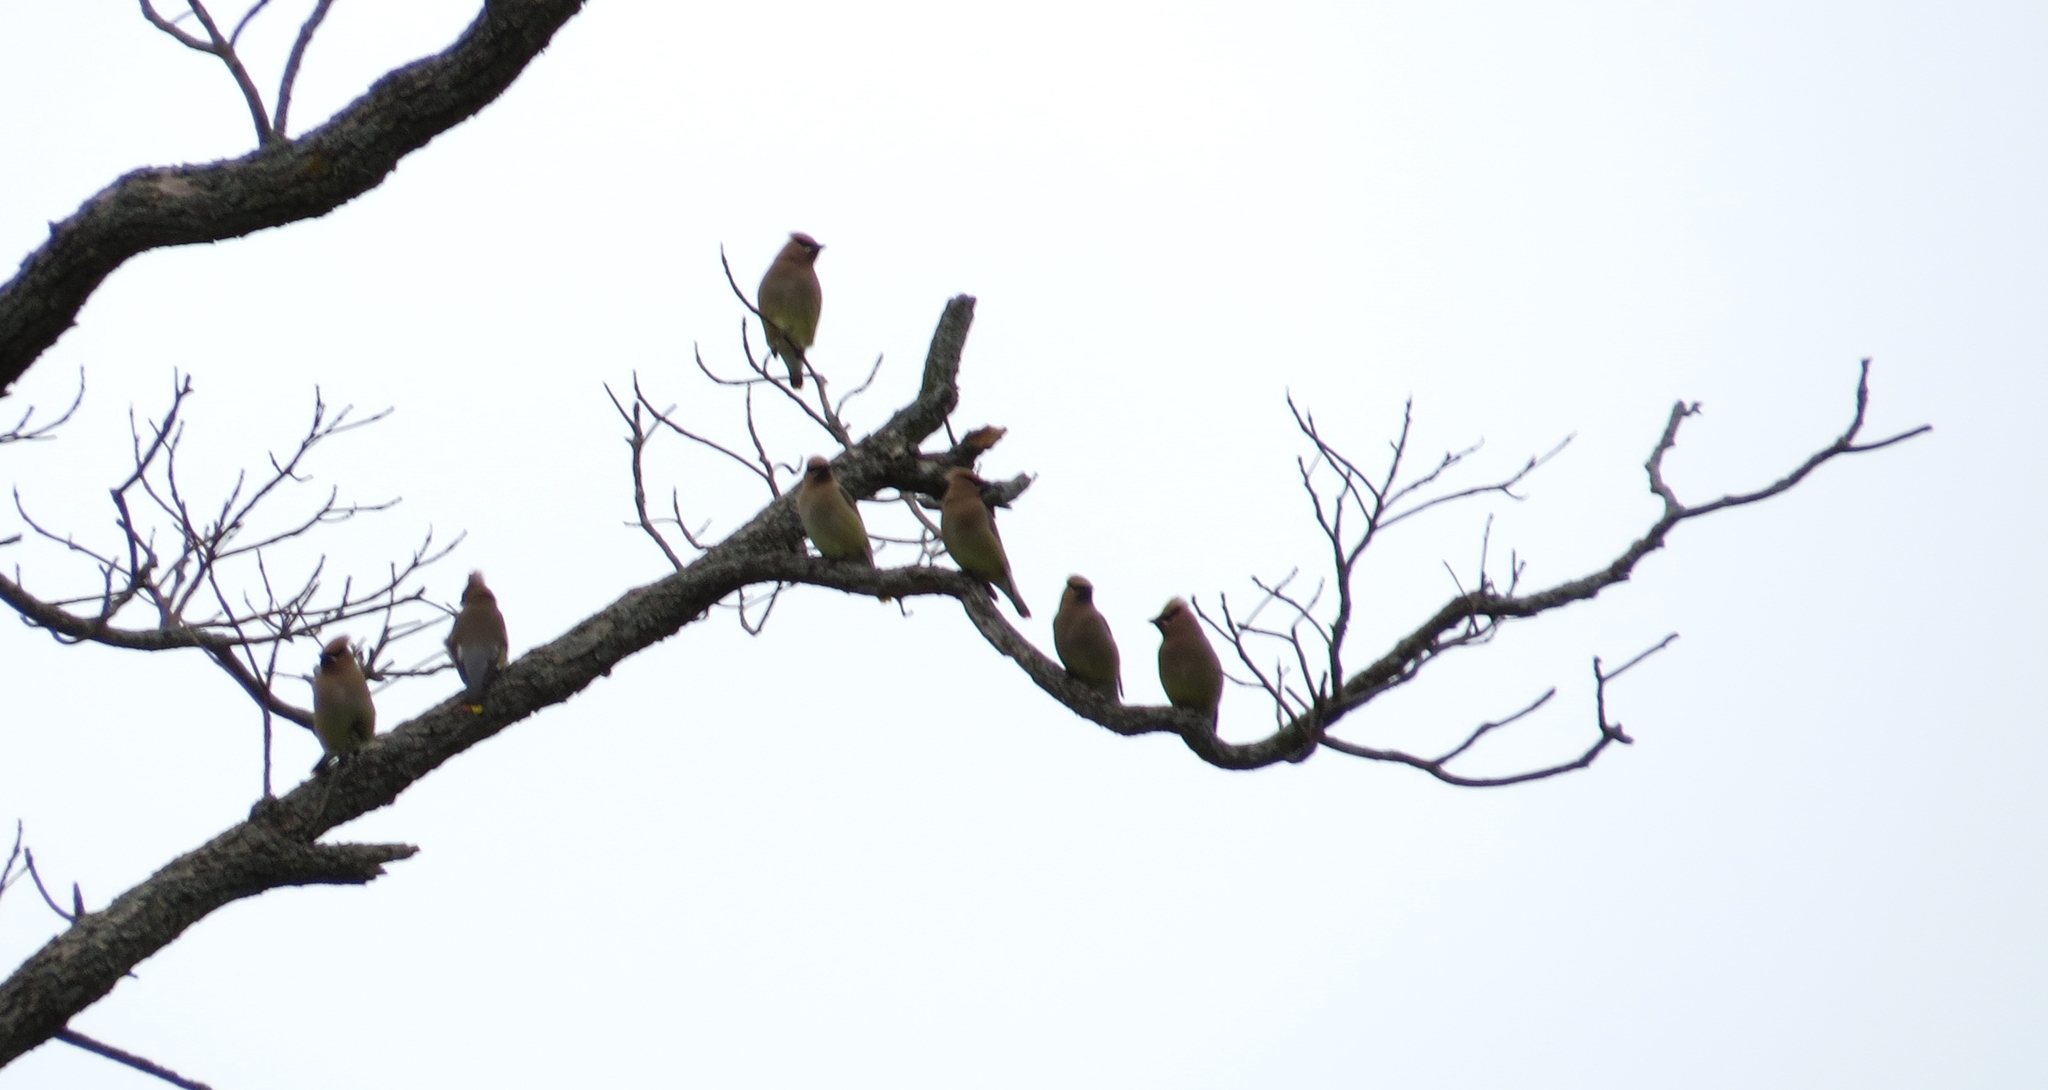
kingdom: Animalia
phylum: Chordata
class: Aves
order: Passeriformes
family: Bombycillidae
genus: Bombycilla
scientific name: Bombycilla cedrorum
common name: Cedar waxwing
